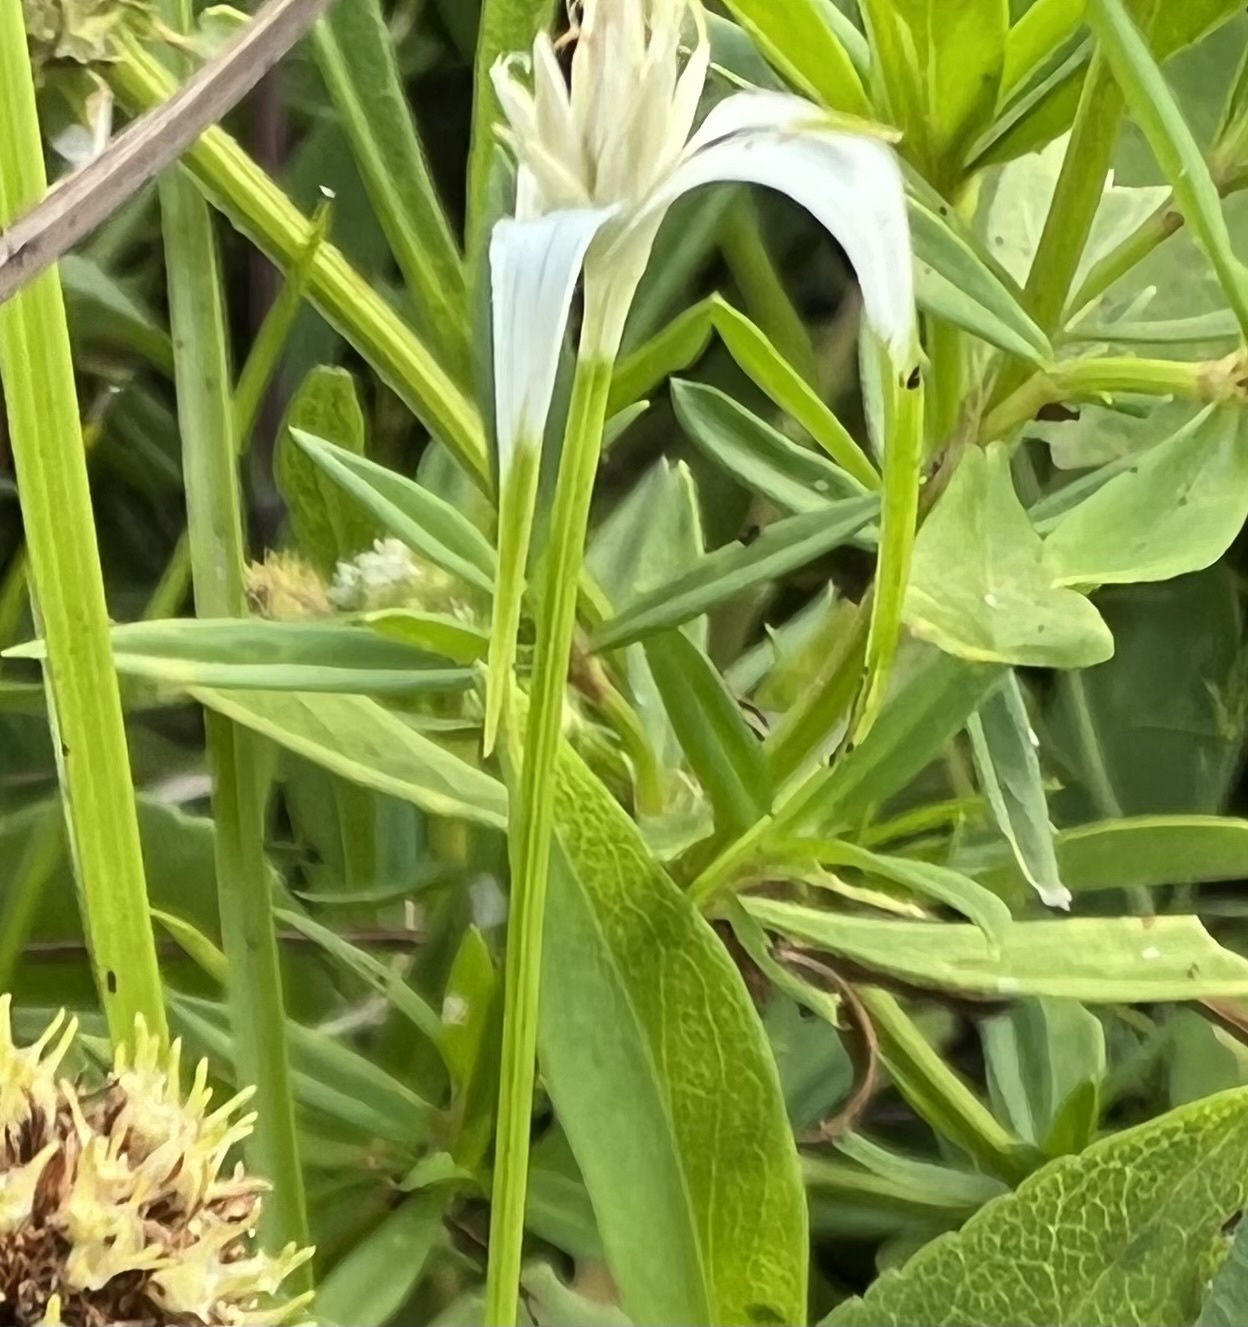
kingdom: Plantae
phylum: Tracheophyta
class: Liliopsida
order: Poales
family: Cyperaceae
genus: Rhynchospora
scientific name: Rhynchospora colorata
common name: Star sedge
